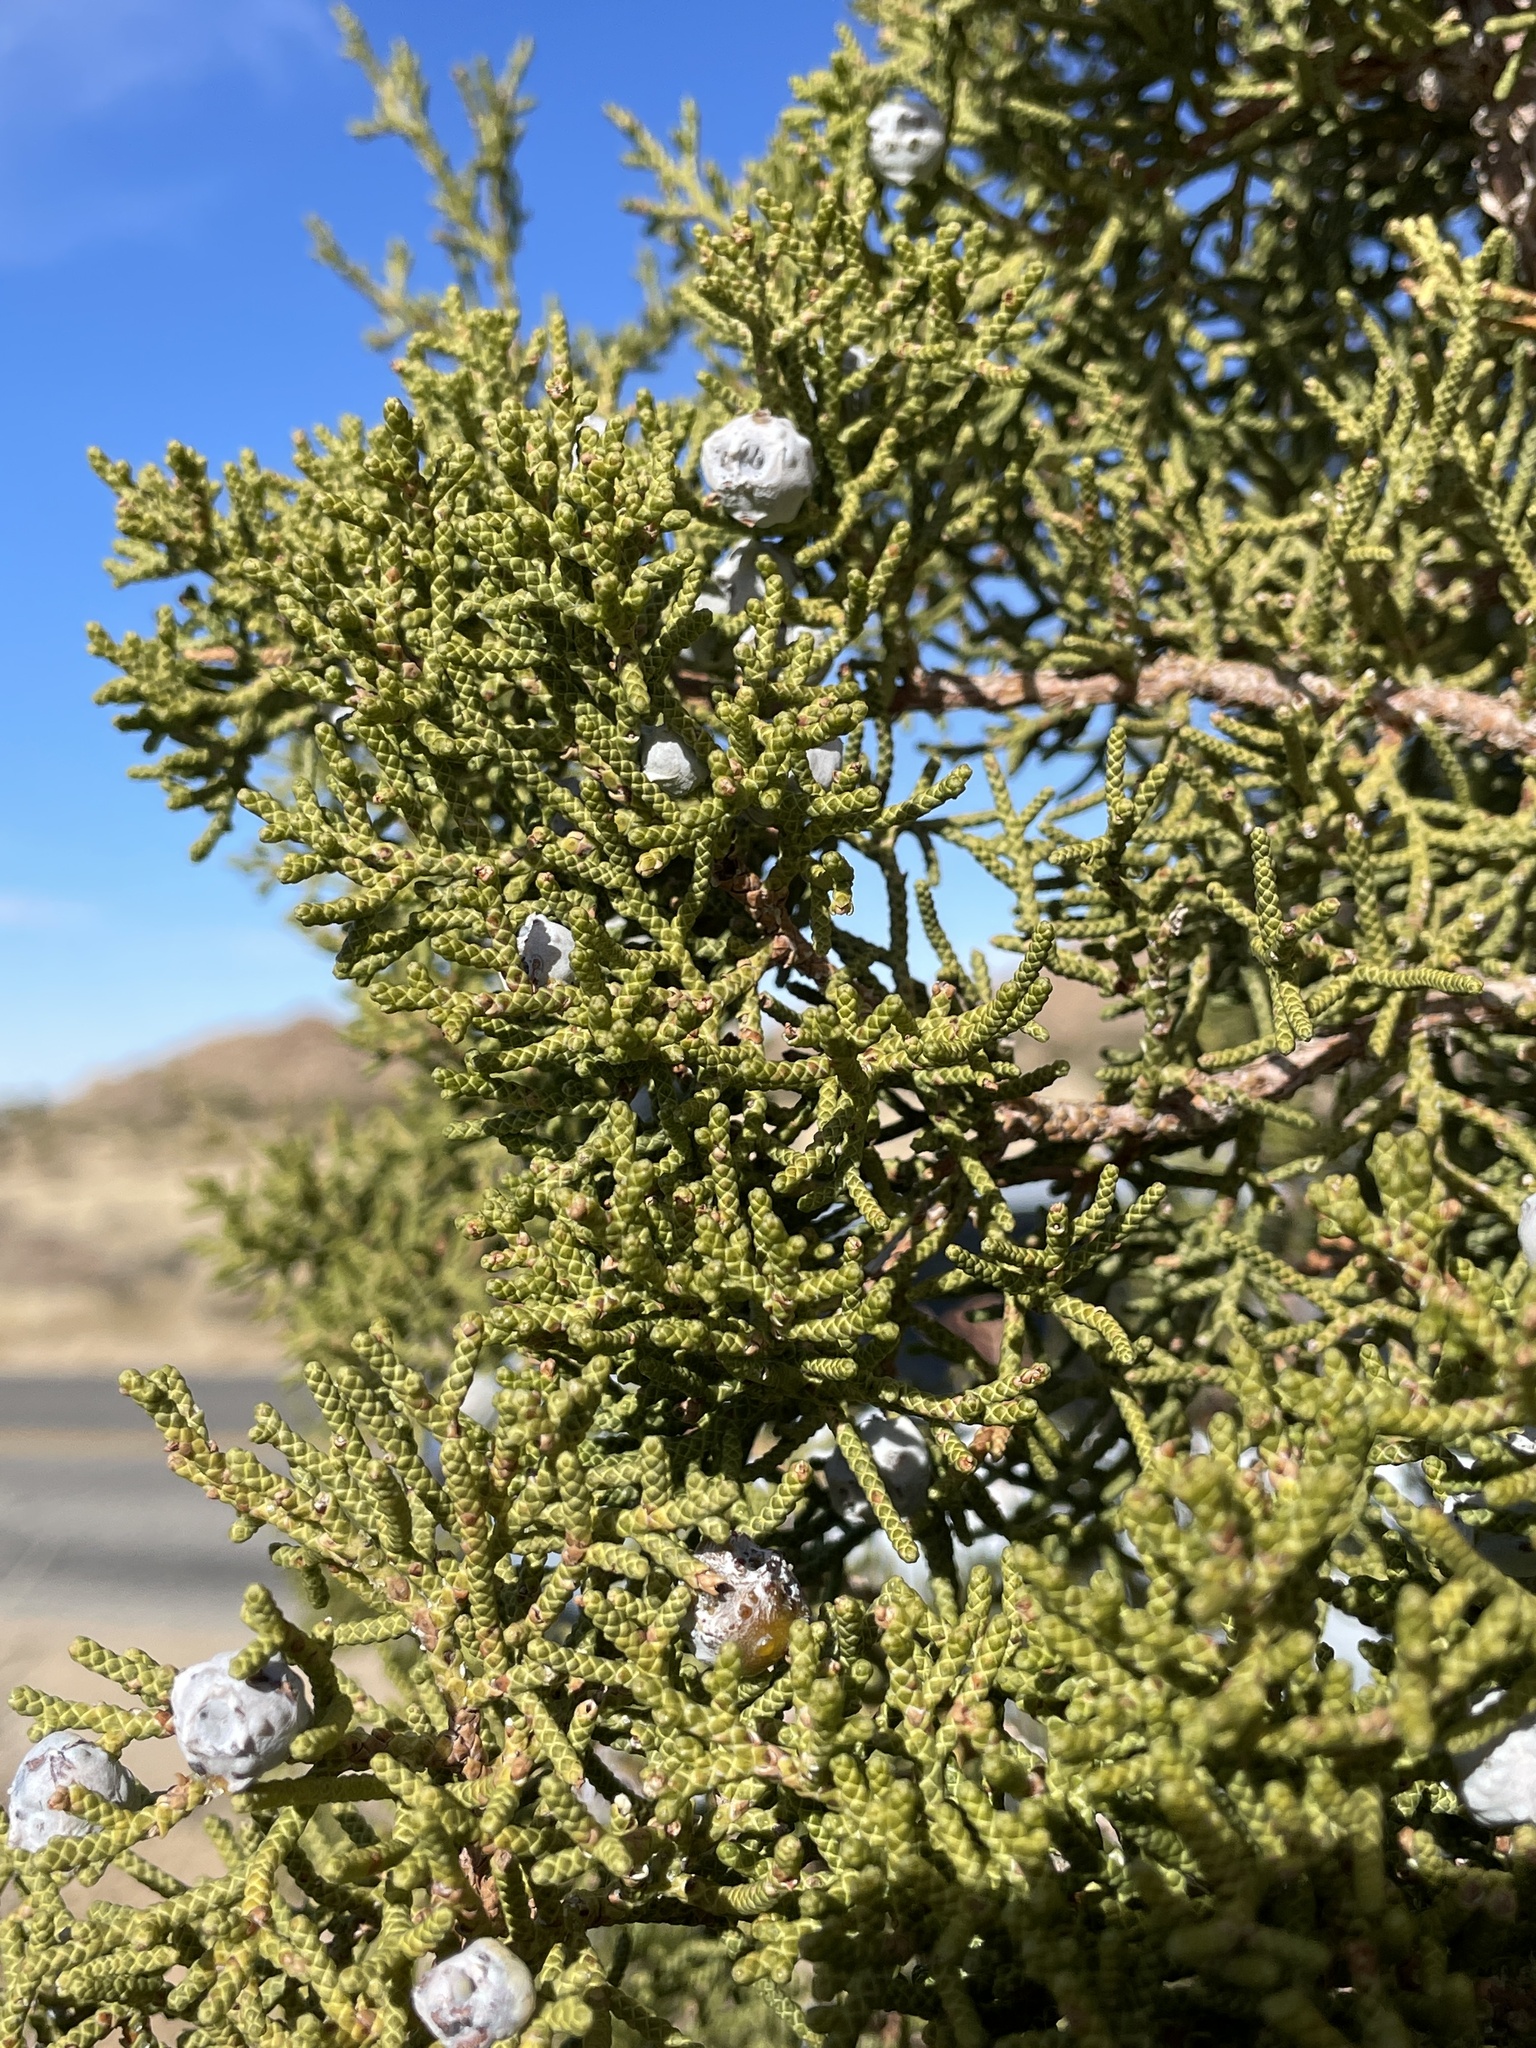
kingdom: Plantae
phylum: Tracheophyta
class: Pinopsida
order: Pinales
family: Cupressaceae
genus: Juniperus
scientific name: Juniperus californica
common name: California juniper
